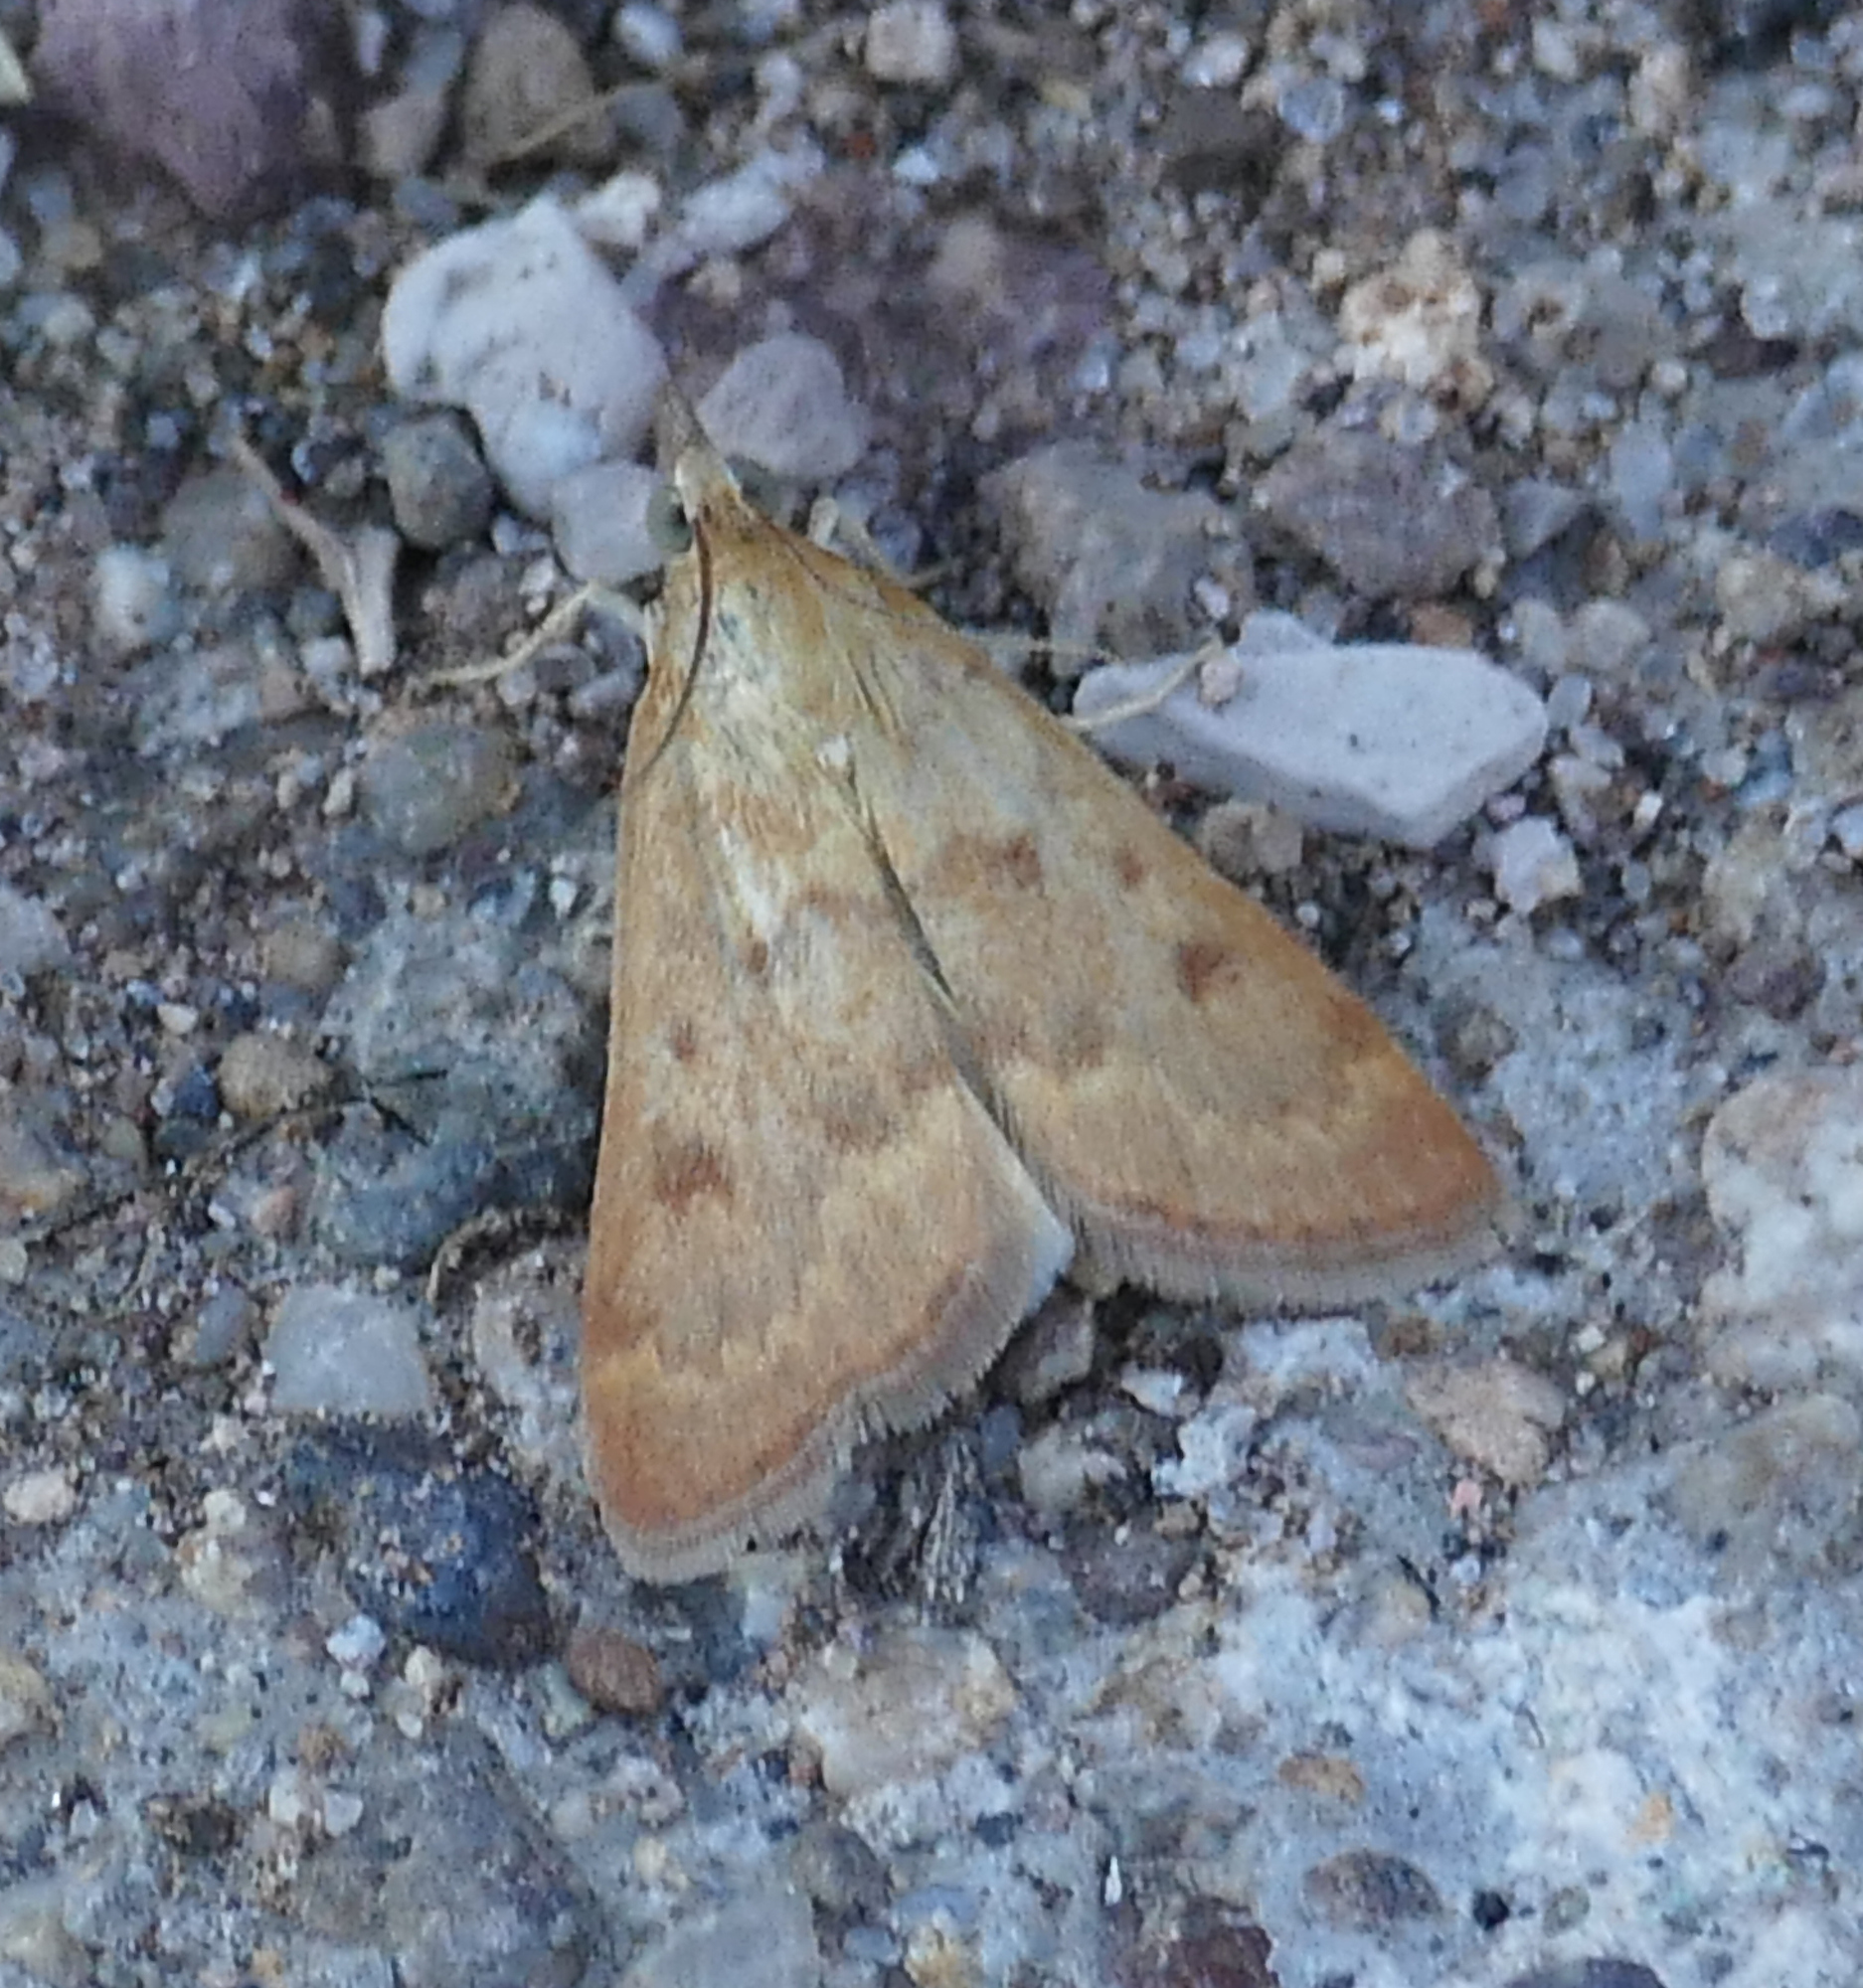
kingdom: Animalia
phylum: Arthropoda
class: Insecta
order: Lepidoptera
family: Crambidae
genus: Achyra
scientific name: Achyra rantalis
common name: Garden webworm
